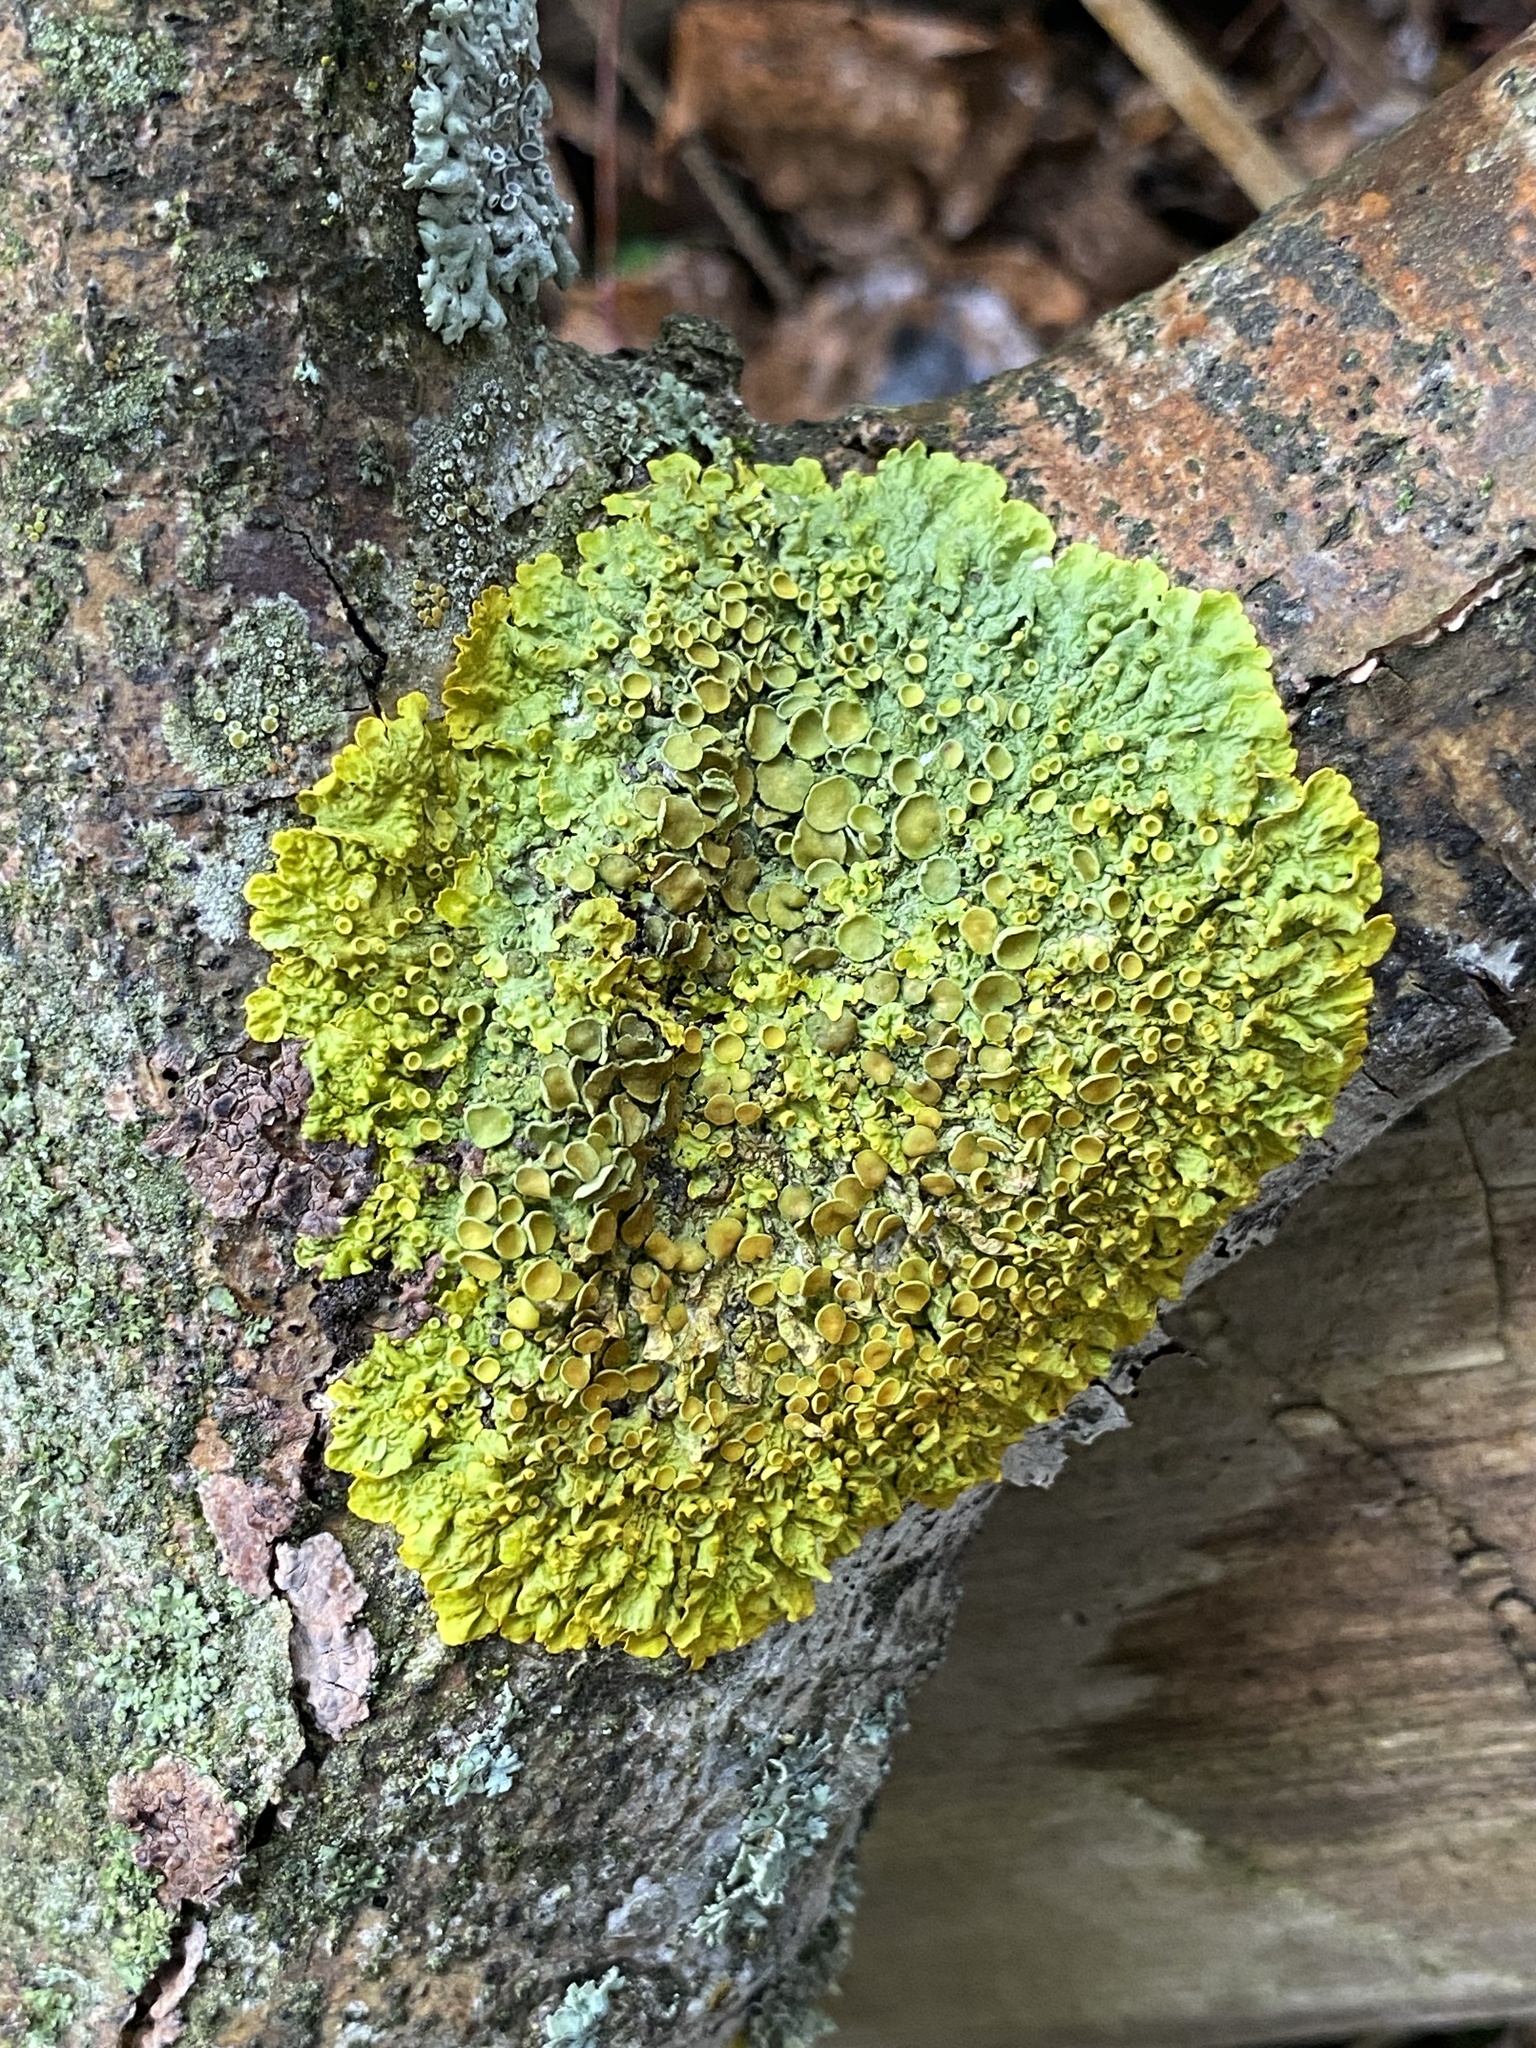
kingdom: Fungi
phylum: Ascomycota
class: Lecanoromycetes
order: Teloschistales
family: Teloschistaceae
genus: Xanthoria
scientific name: Xanthoria parietina
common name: Common orange lichen
